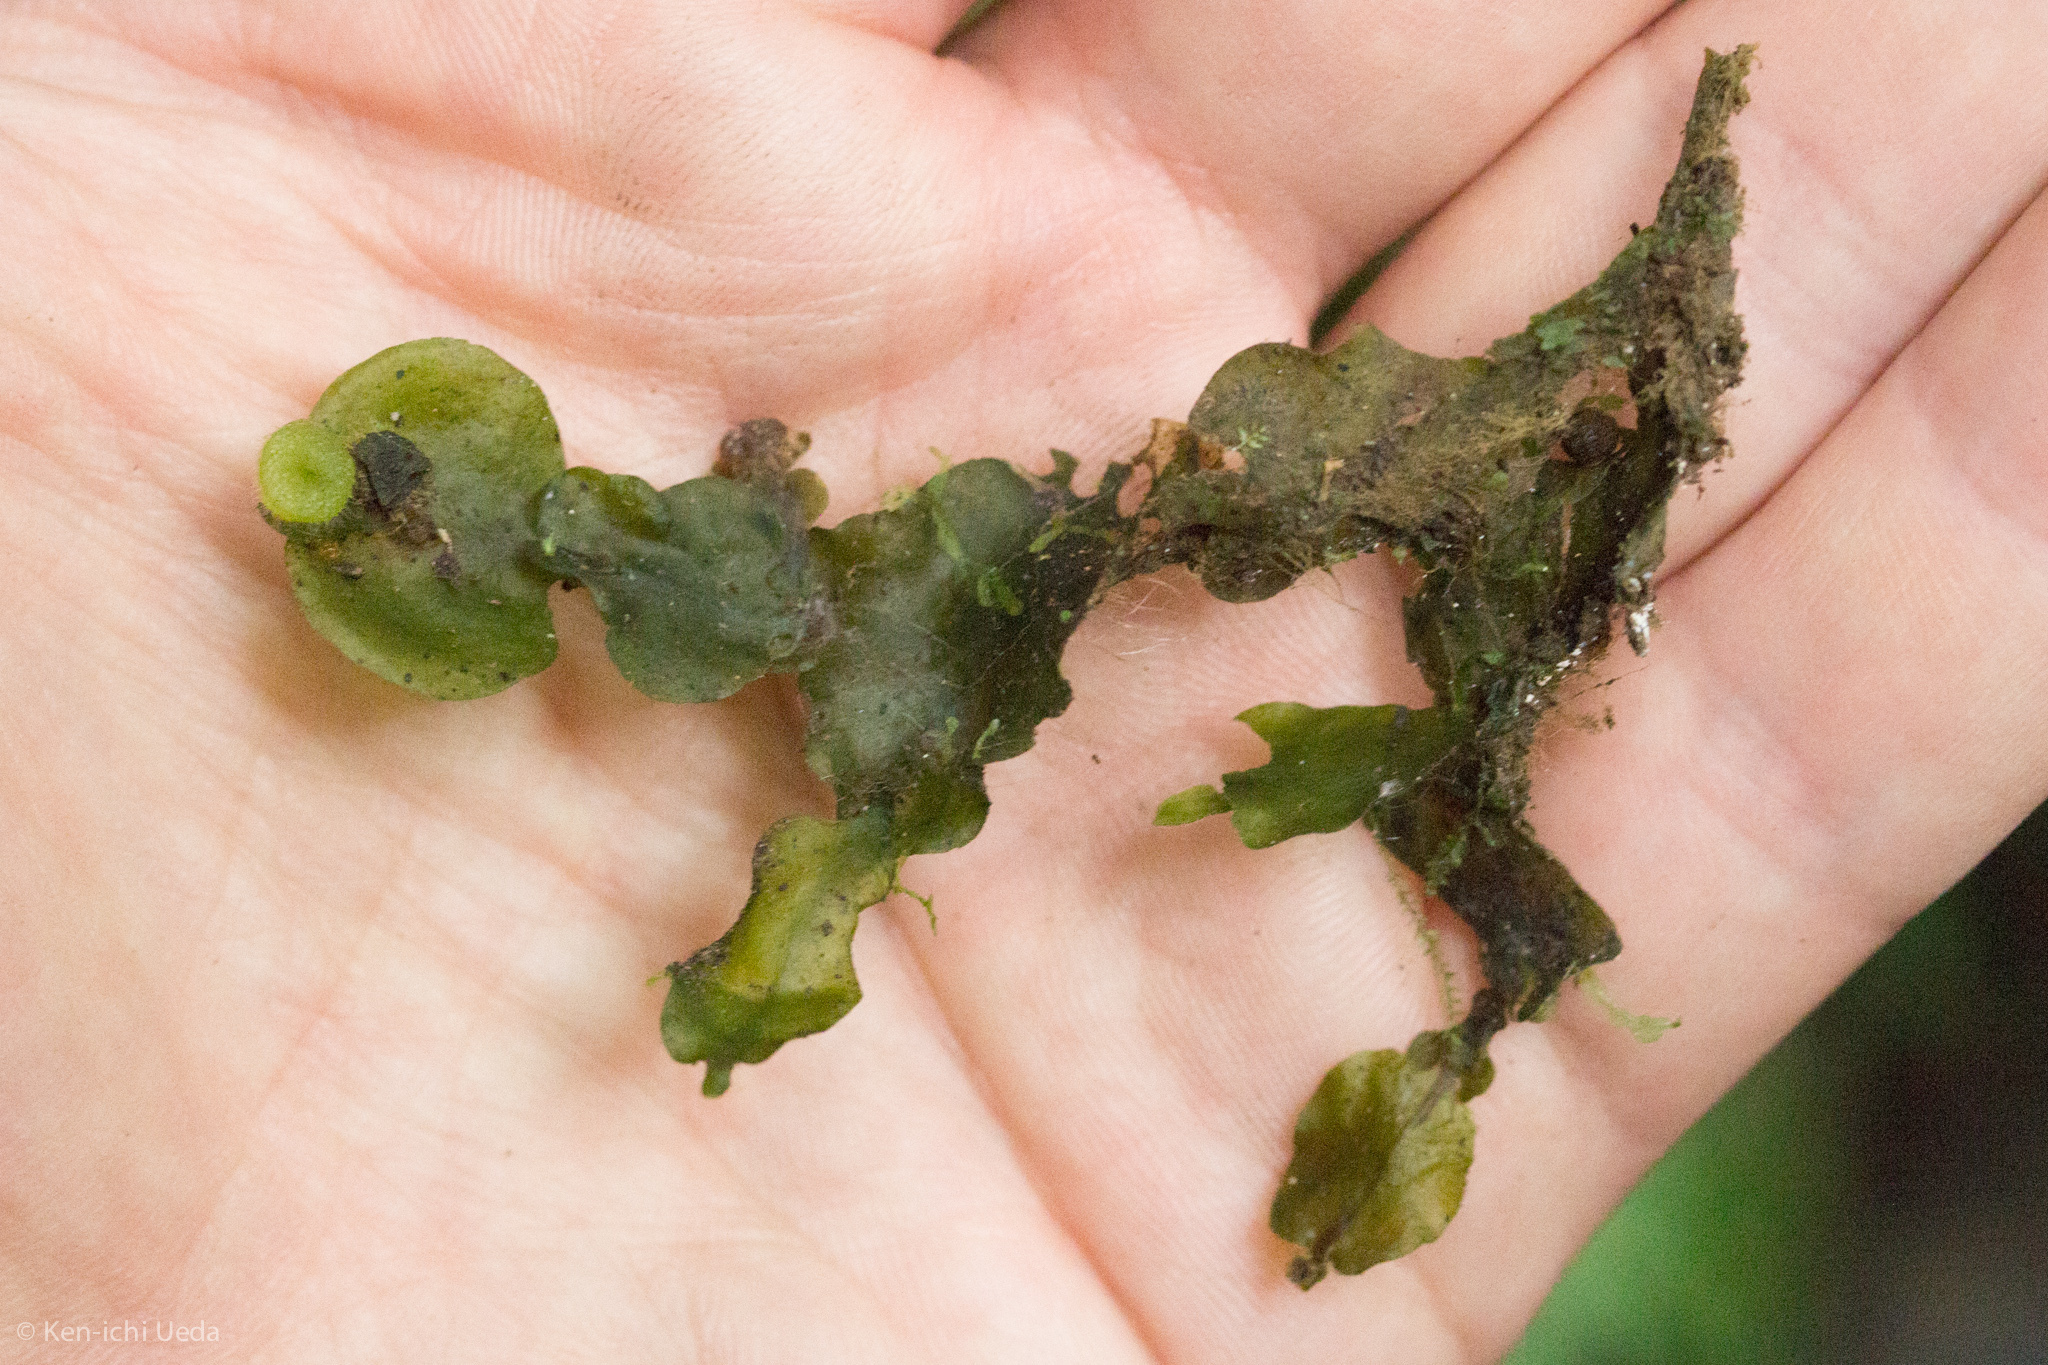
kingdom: Plantae
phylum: Marchantiophyta
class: Marchantiopsida
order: Marchantiales
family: Dumortieraceae
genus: Dumortiera
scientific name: Dumortiera hirsuta
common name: Dumortier's liverwort
